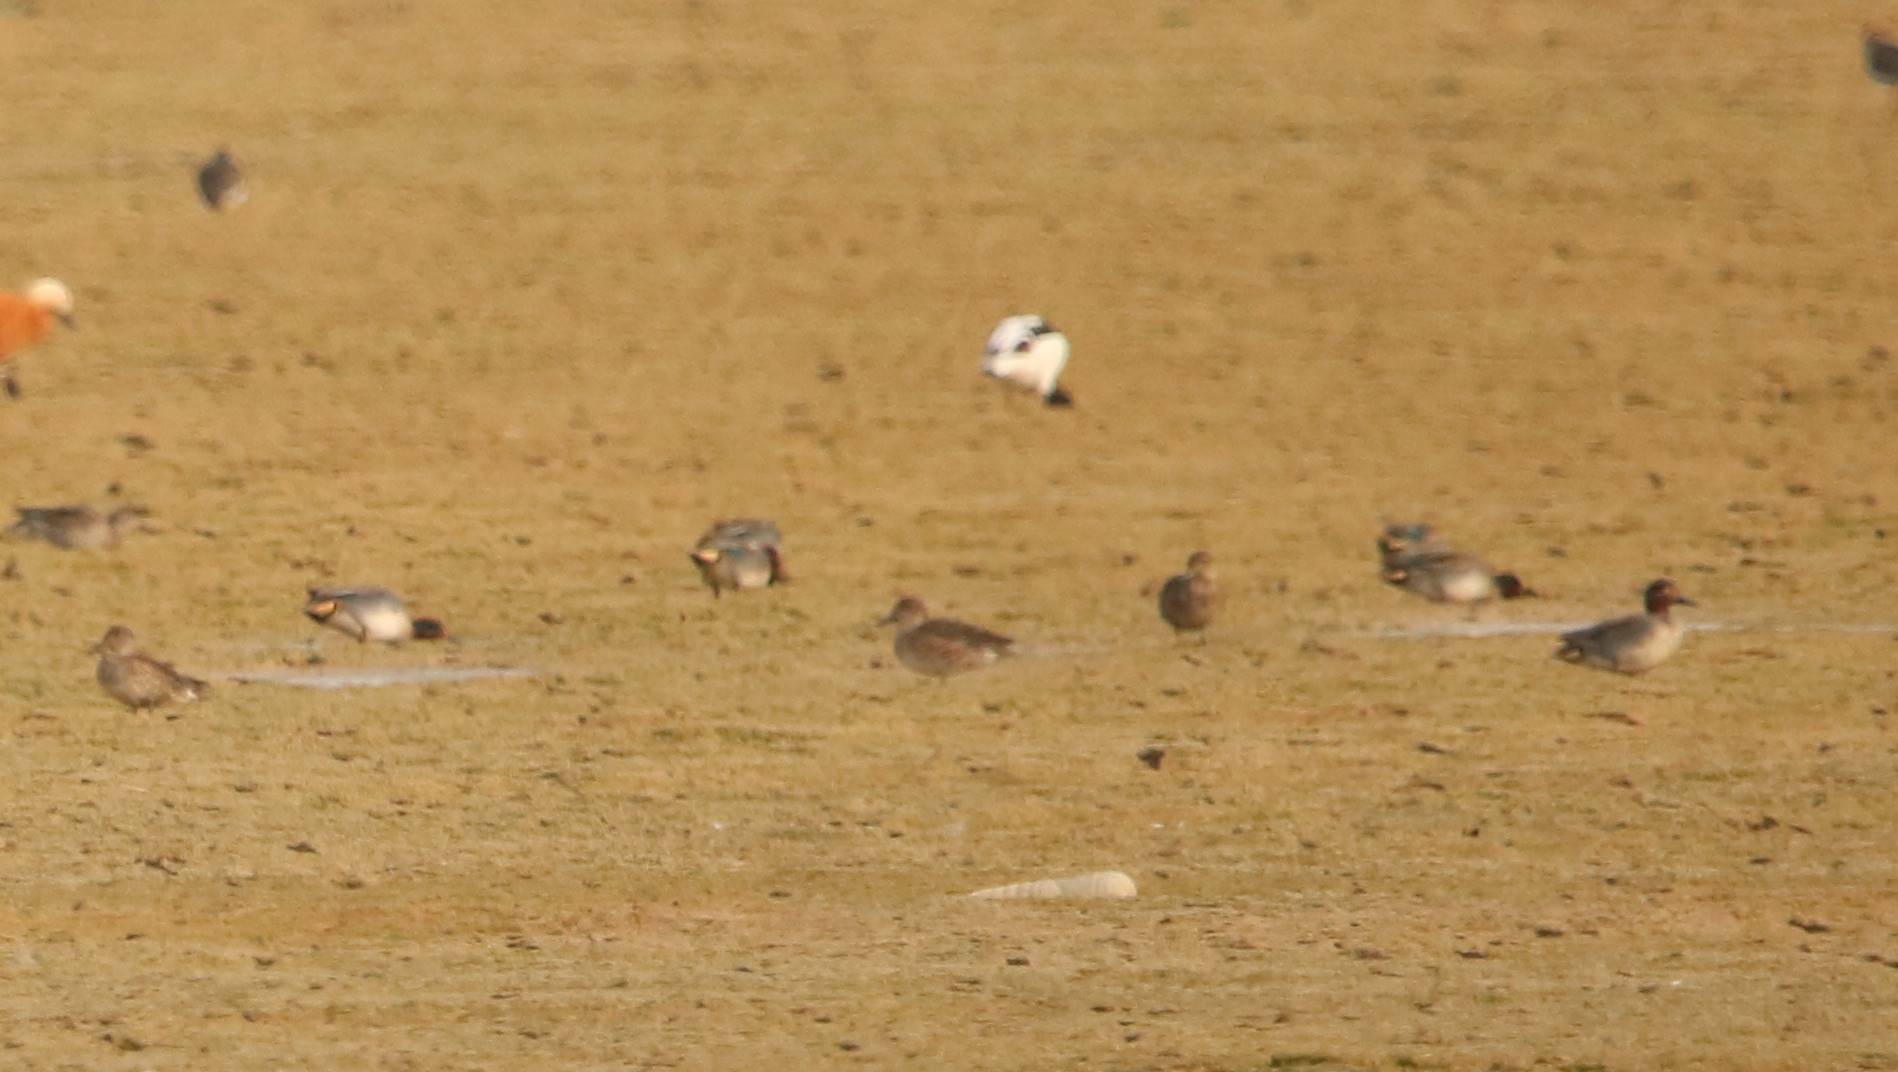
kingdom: Animalia
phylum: Chordata
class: Aves
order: Anseriformes
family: Anatidae
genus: Anas
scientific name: Anas crecca
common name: Eurasian teal
